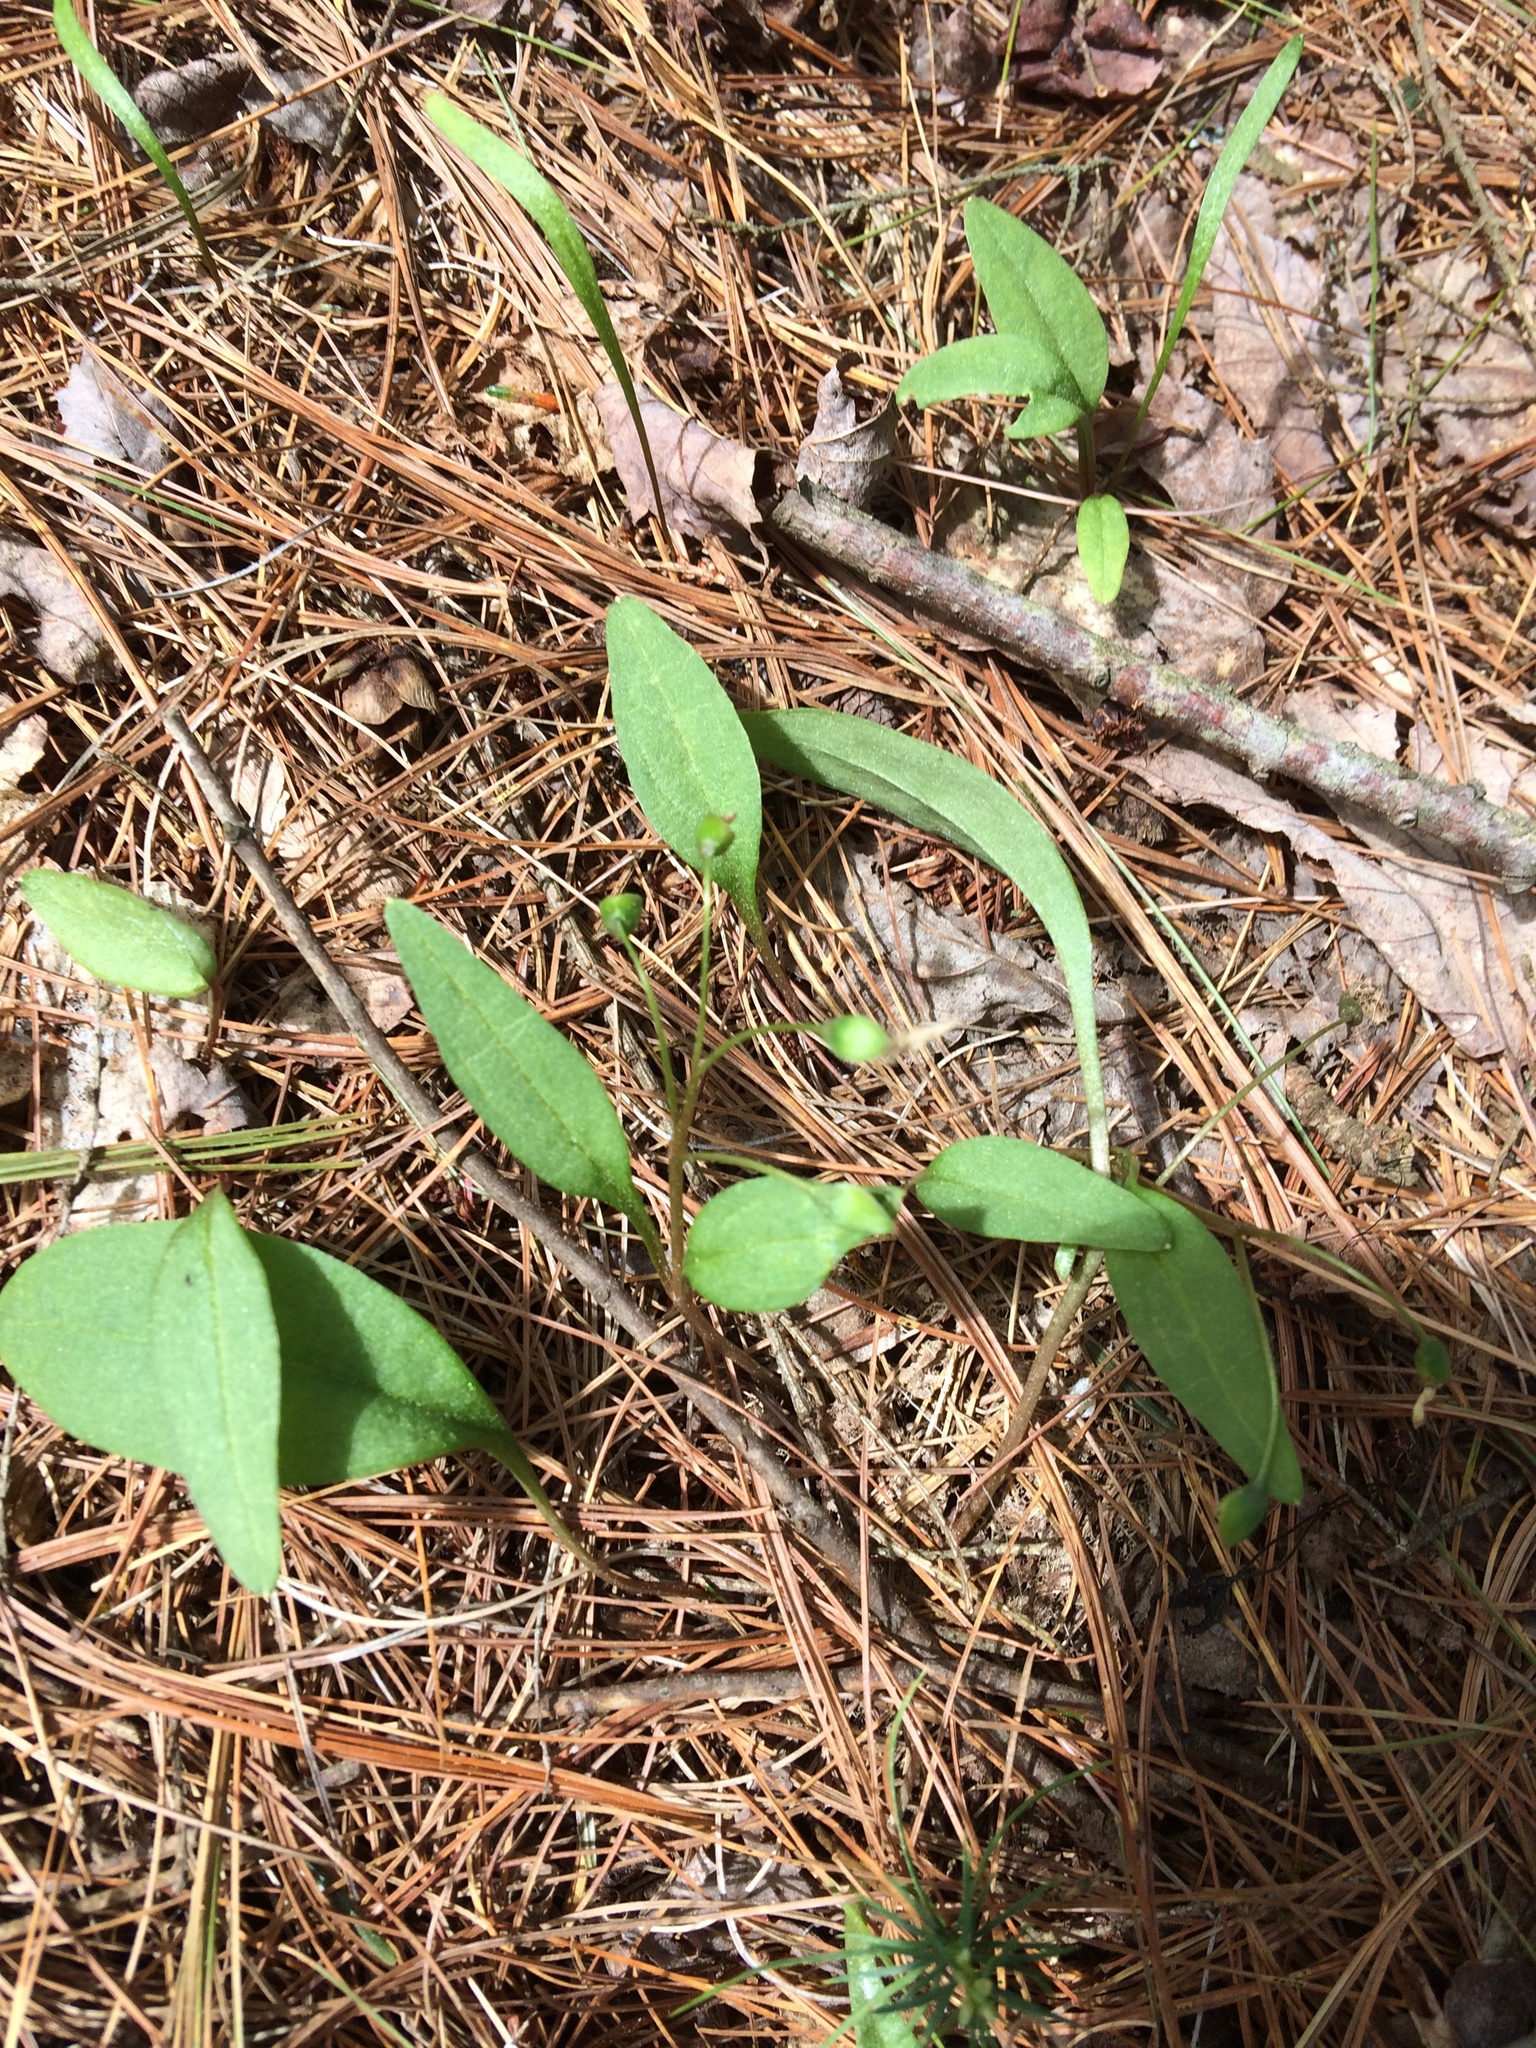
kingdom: Plantae
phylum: Tracheophyta
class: Magnoliopsida
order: Caryophyllales
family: Montiaceae
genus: Claytonia
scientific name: Claytonia caroliniana
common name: Carolina spring beauty
